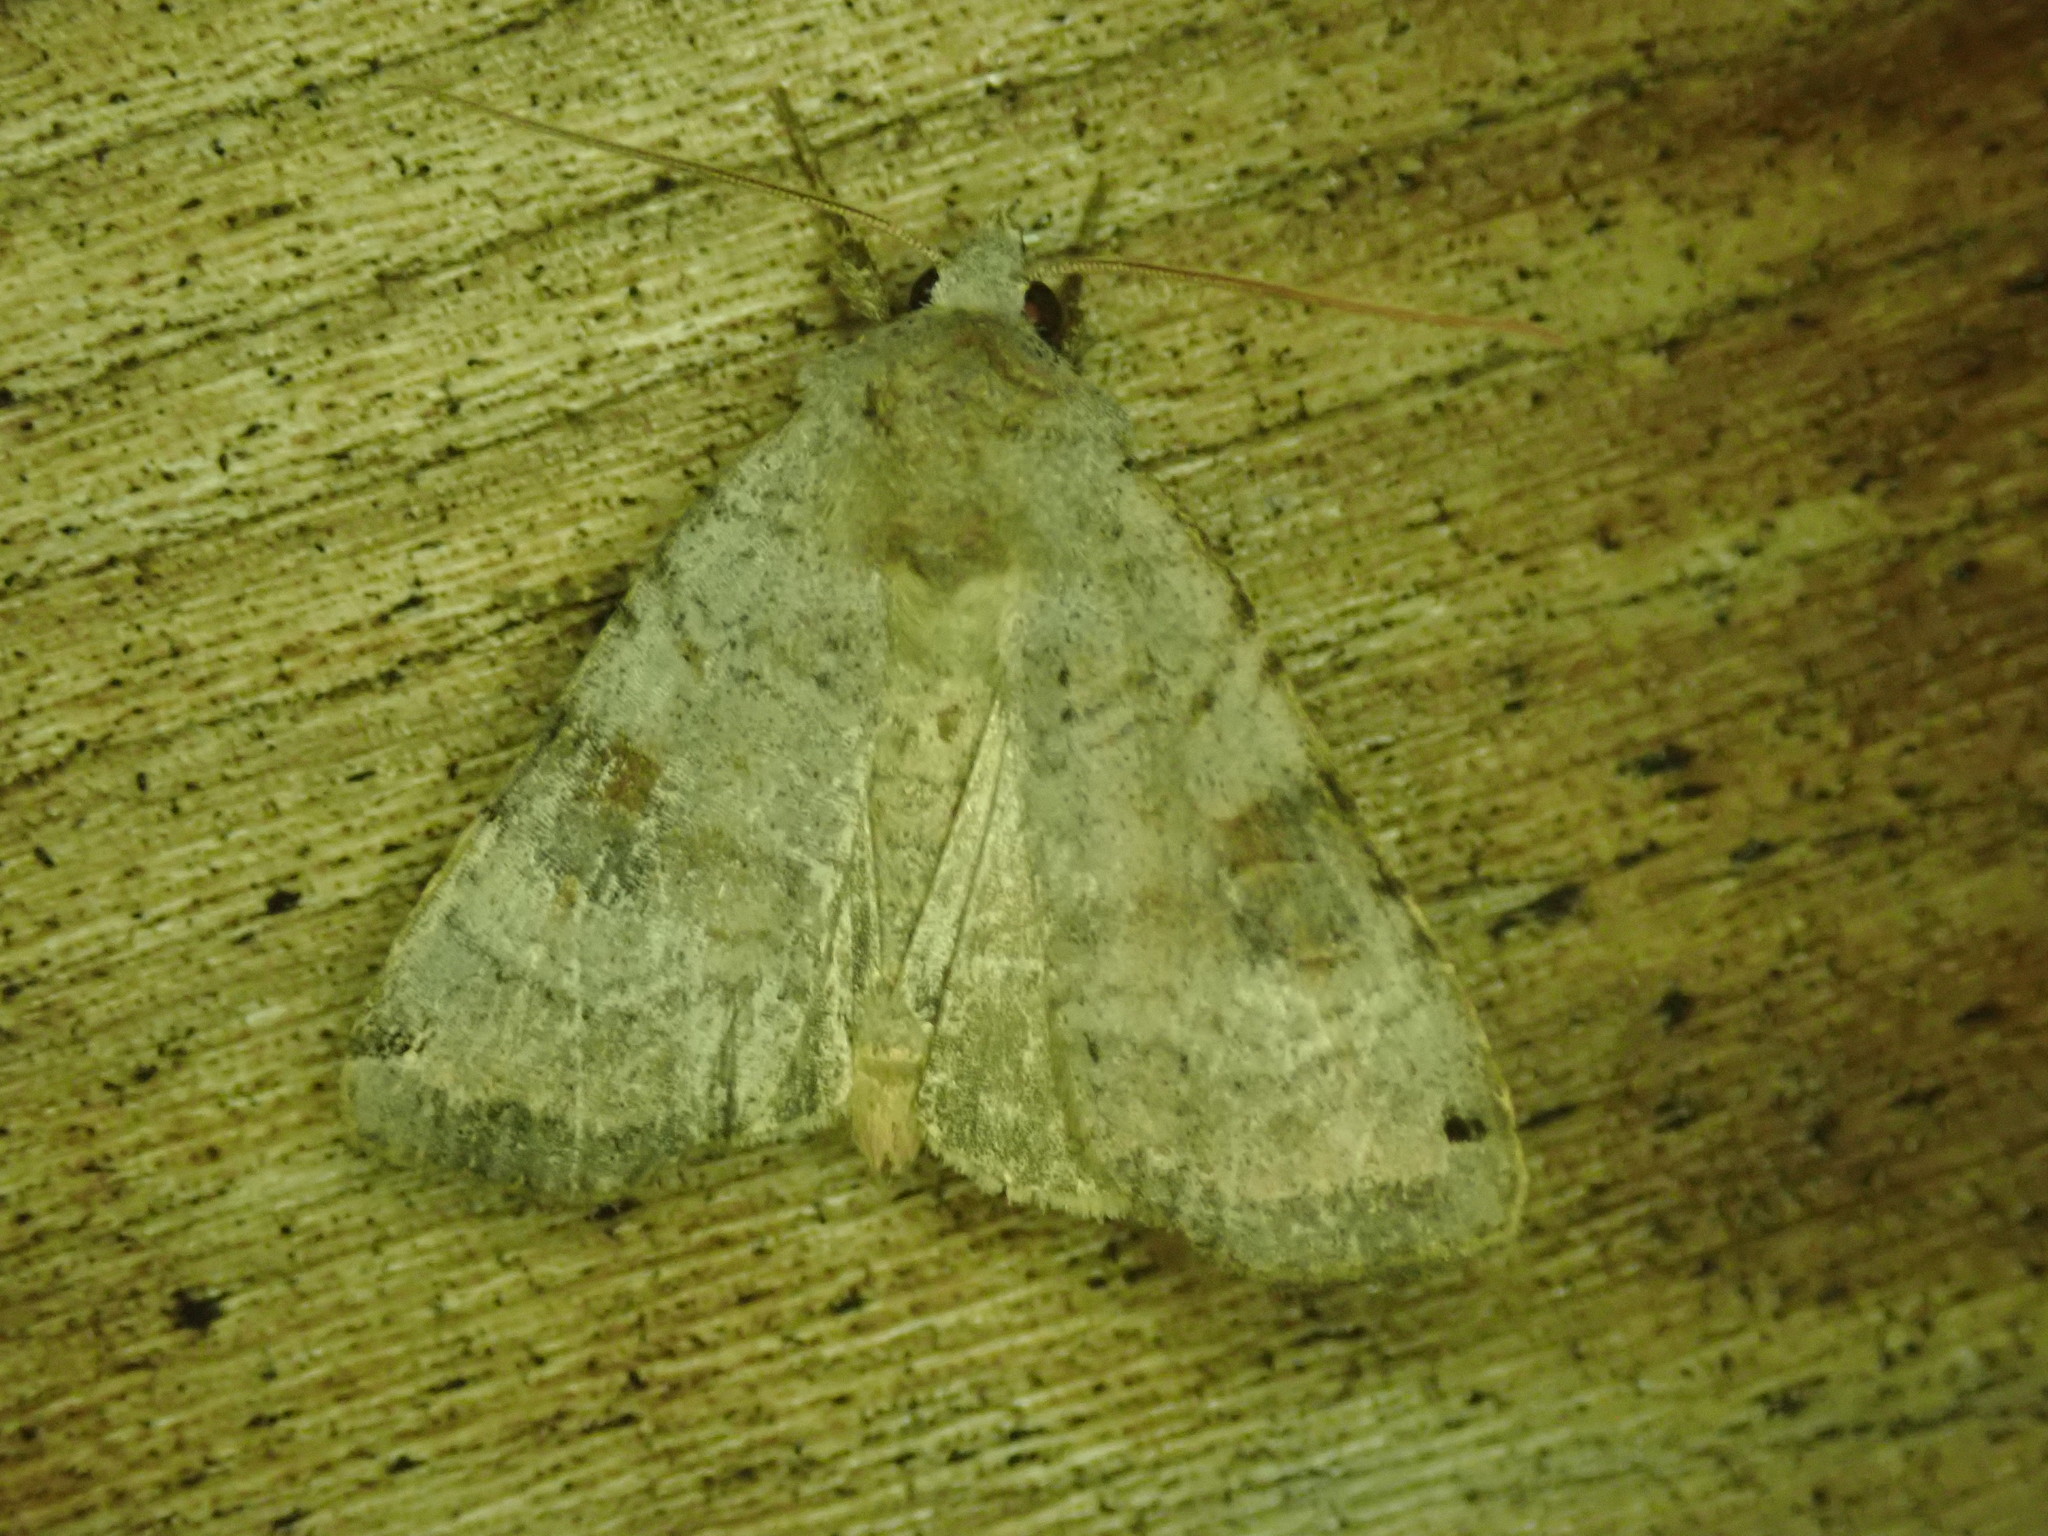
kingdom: Animalia
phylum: Arthropoda
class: Insecta
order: Lepidoptera
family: Noctuidae
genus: Xestia
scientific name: Xestia smithii
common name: Smith's dart
